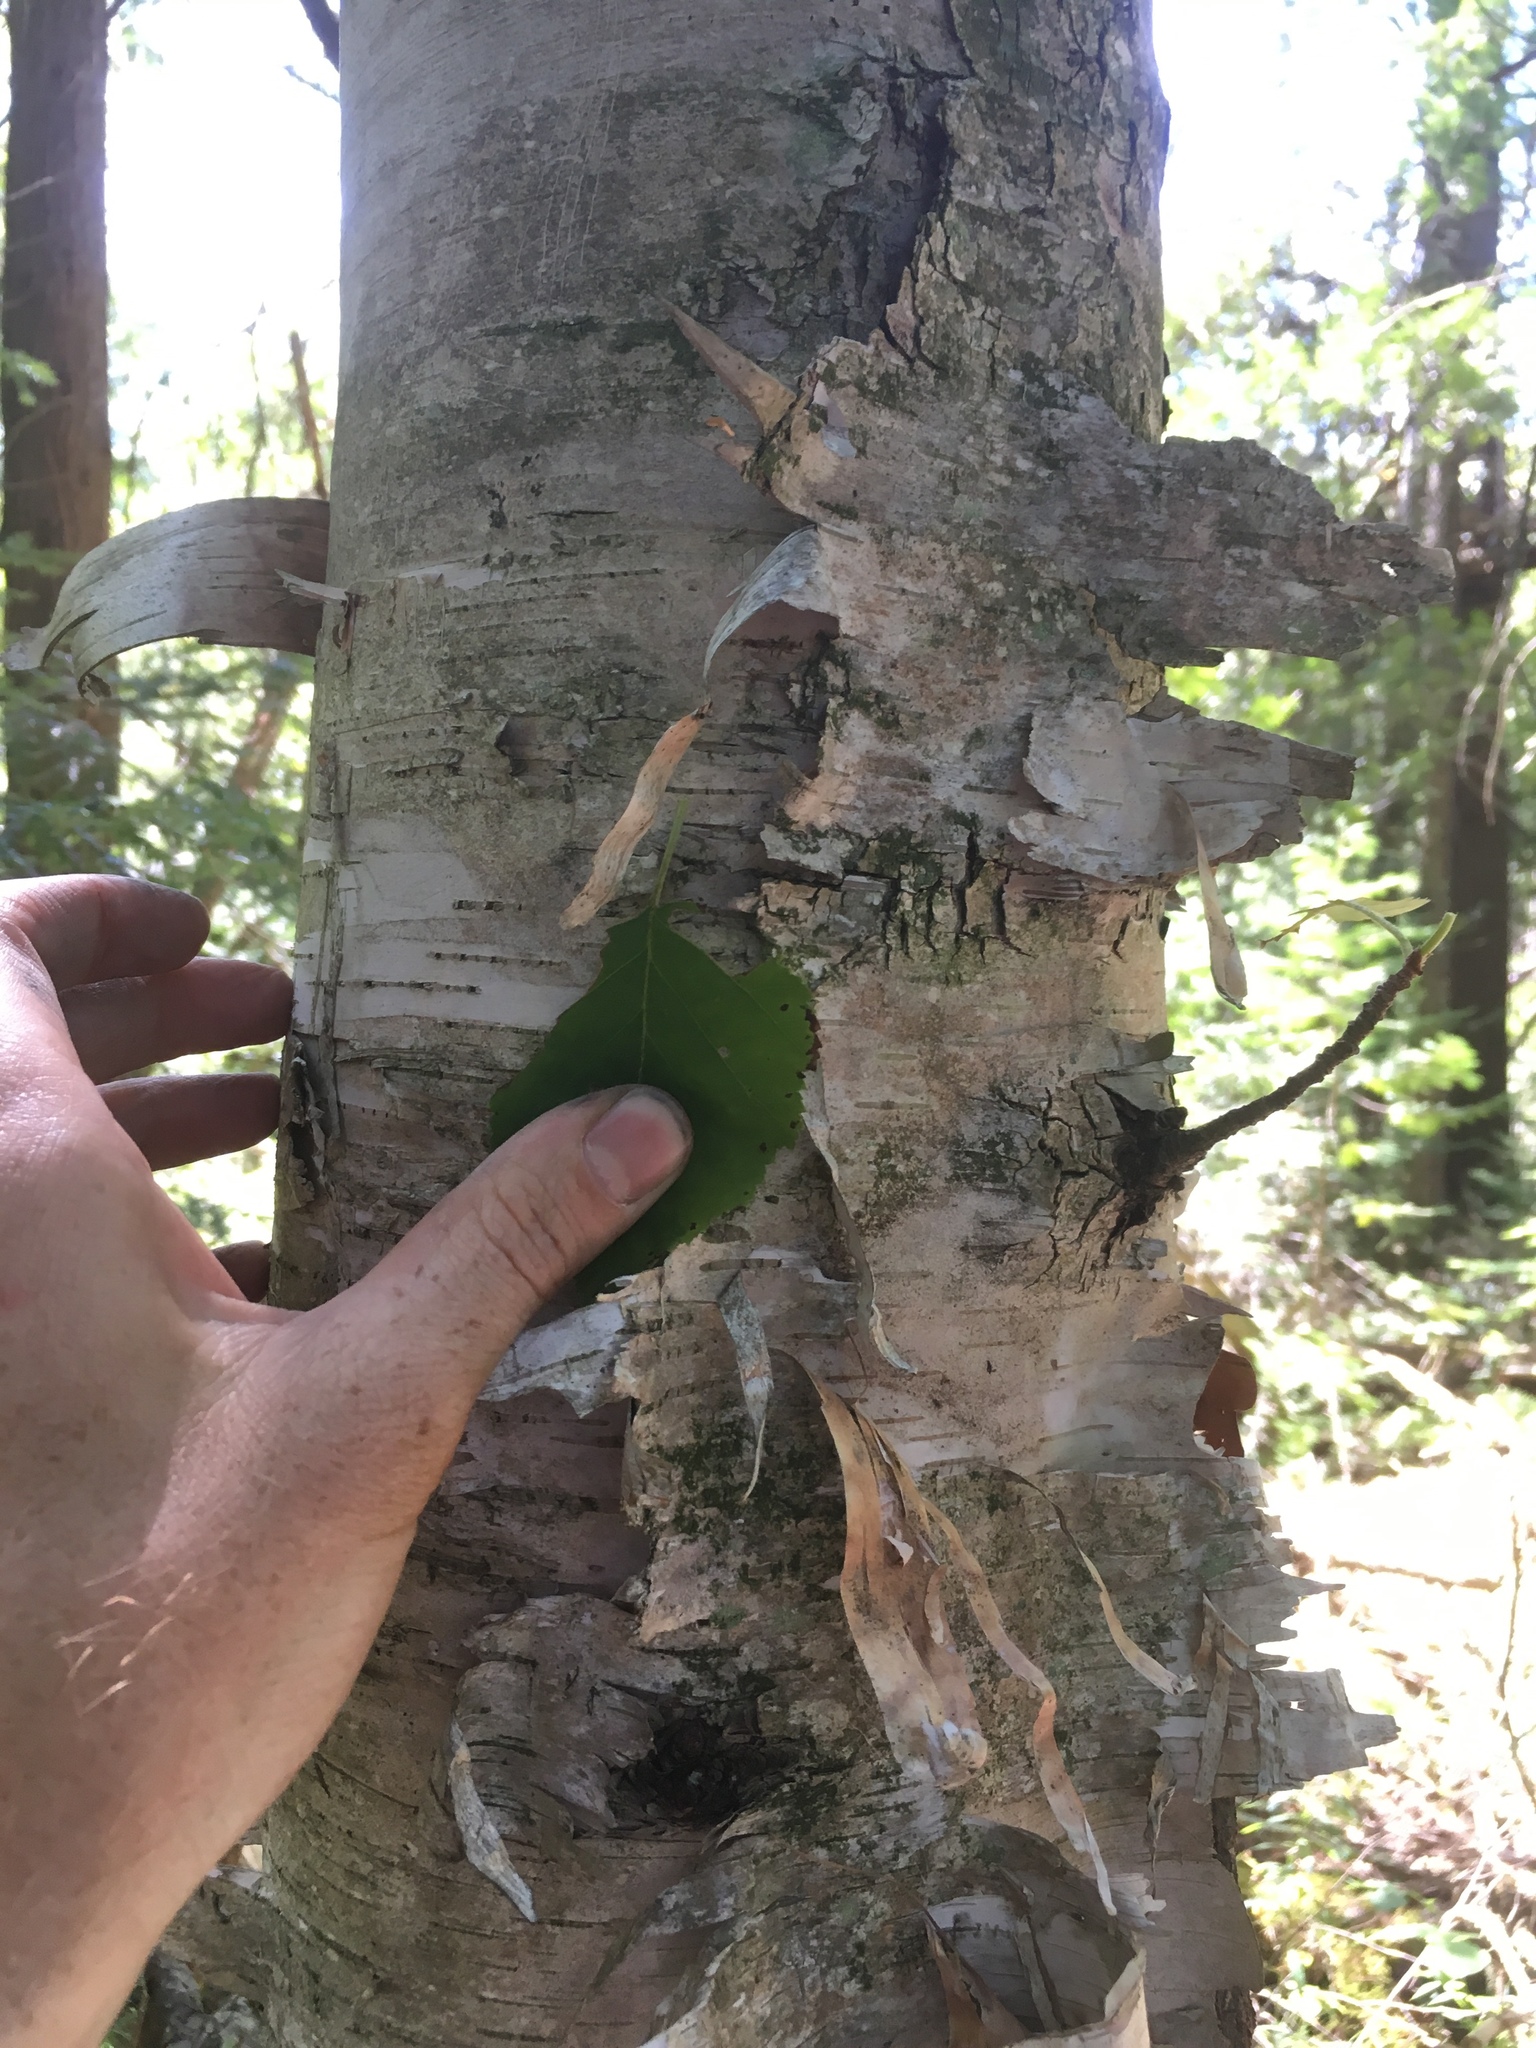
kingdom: Plantae
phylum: Tracheophyta
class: Magnoliopsida
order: Fagales
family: Betulaceae
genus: Betula
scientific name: Betula papyrifera
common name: Paper birch
